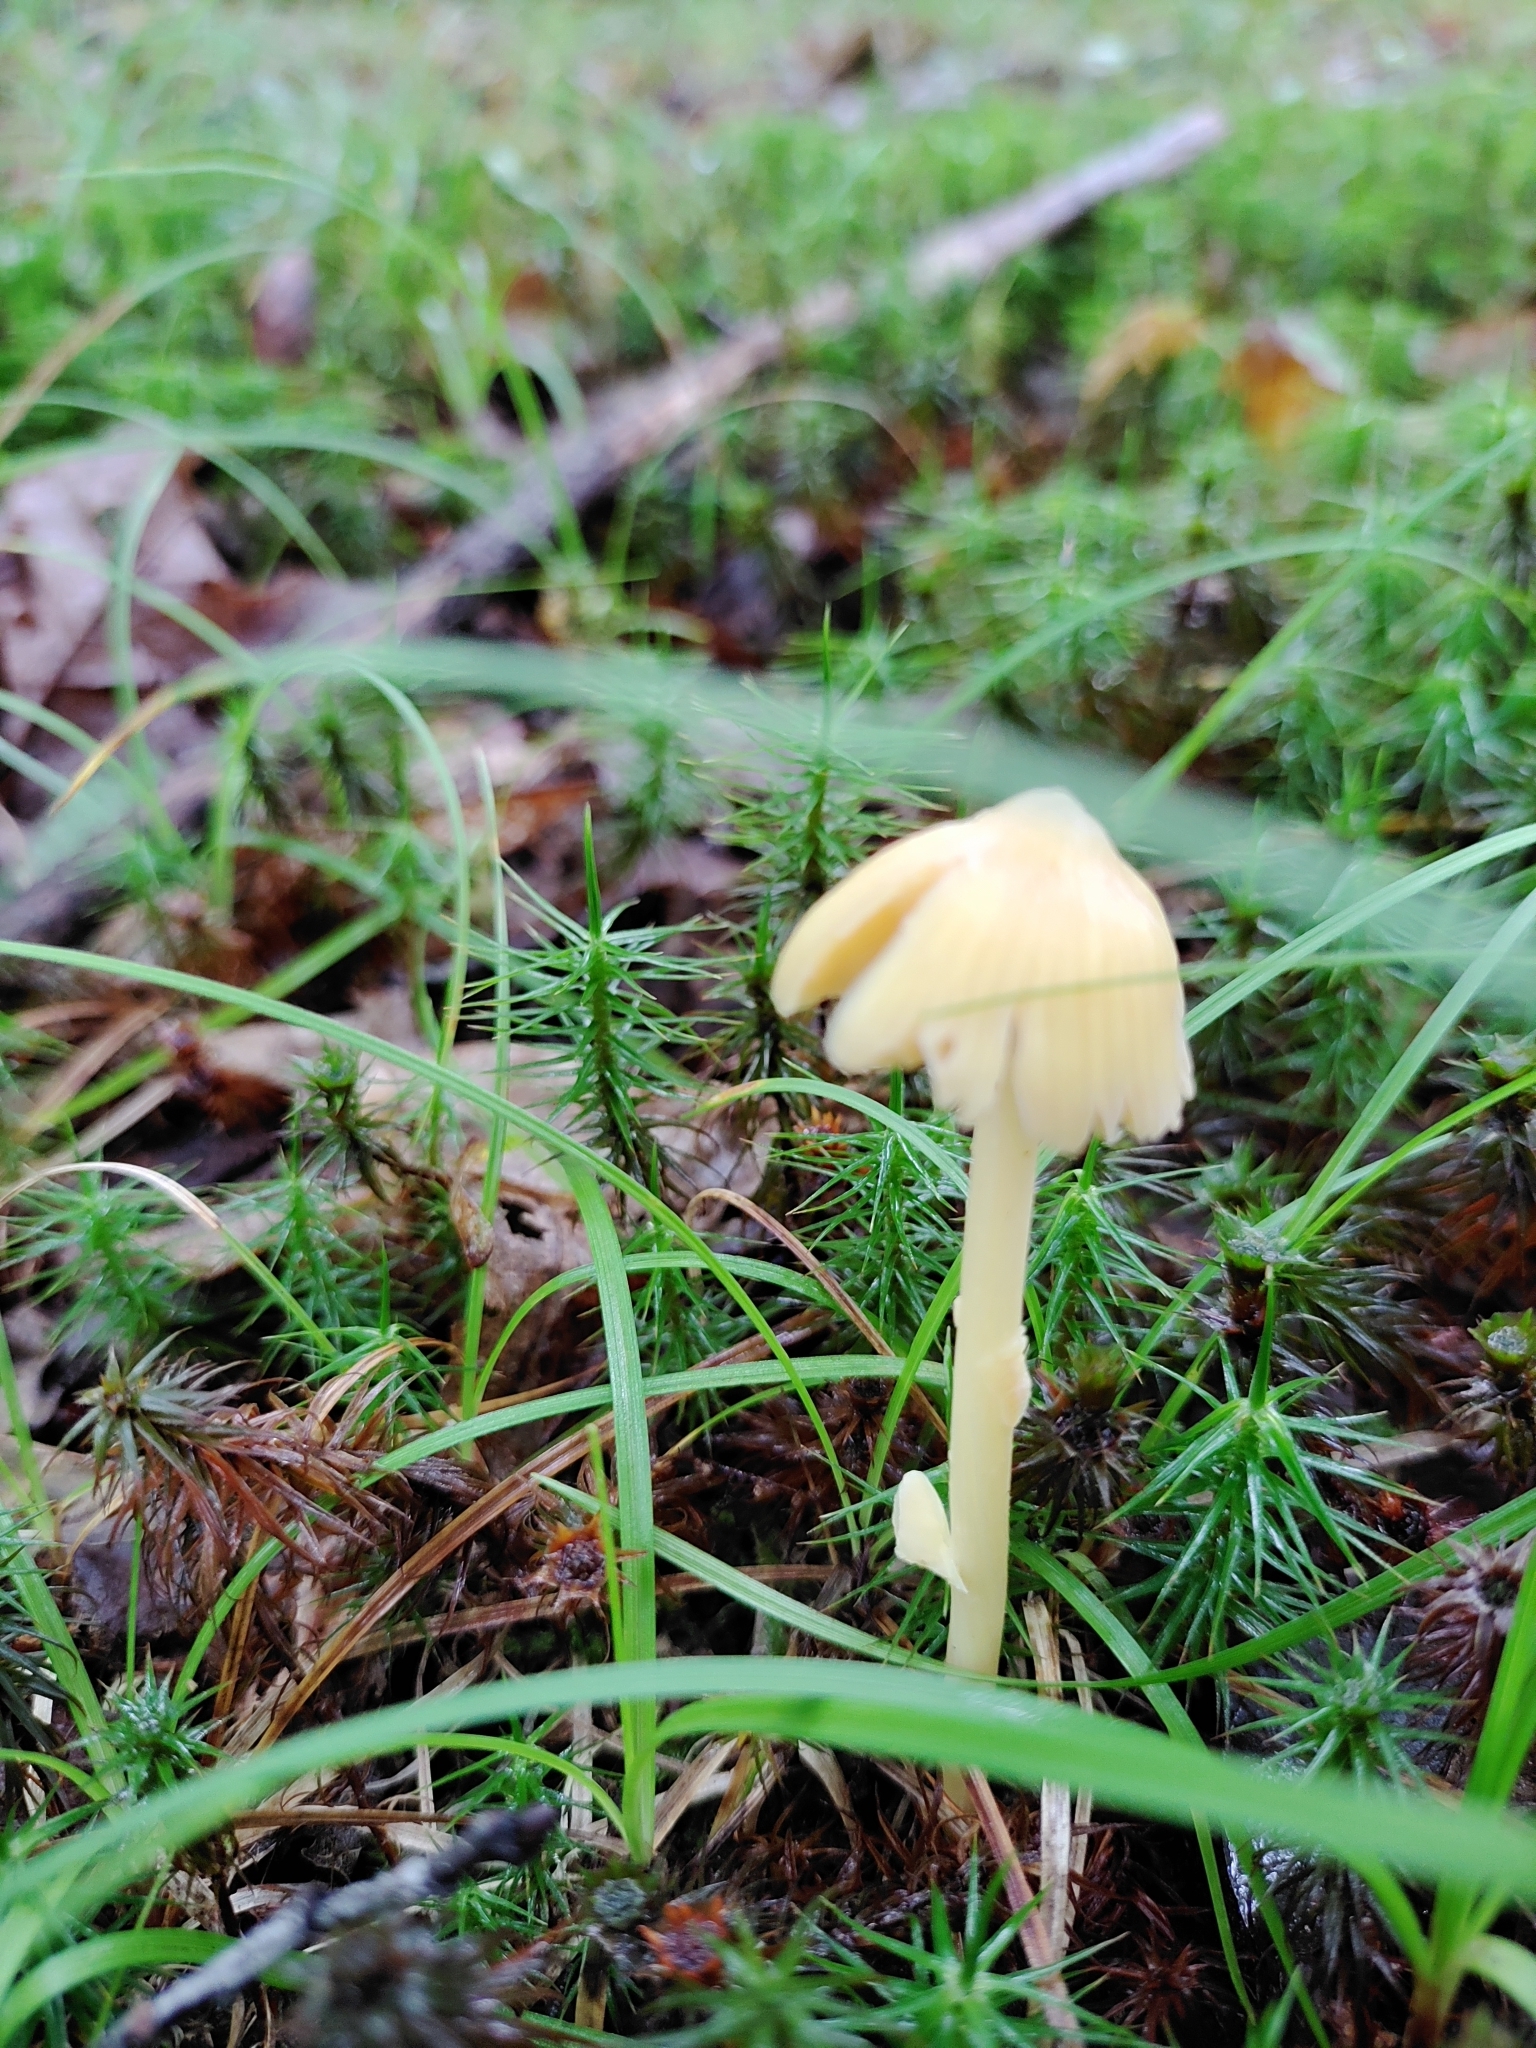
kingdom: Fungi
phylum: Basidiomycota
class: Agaricomycetes
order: Agaricales
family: Entolomataceae
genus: Entoloma
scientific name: Entoloma murrayi
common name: Yellow unicorn entoloma
